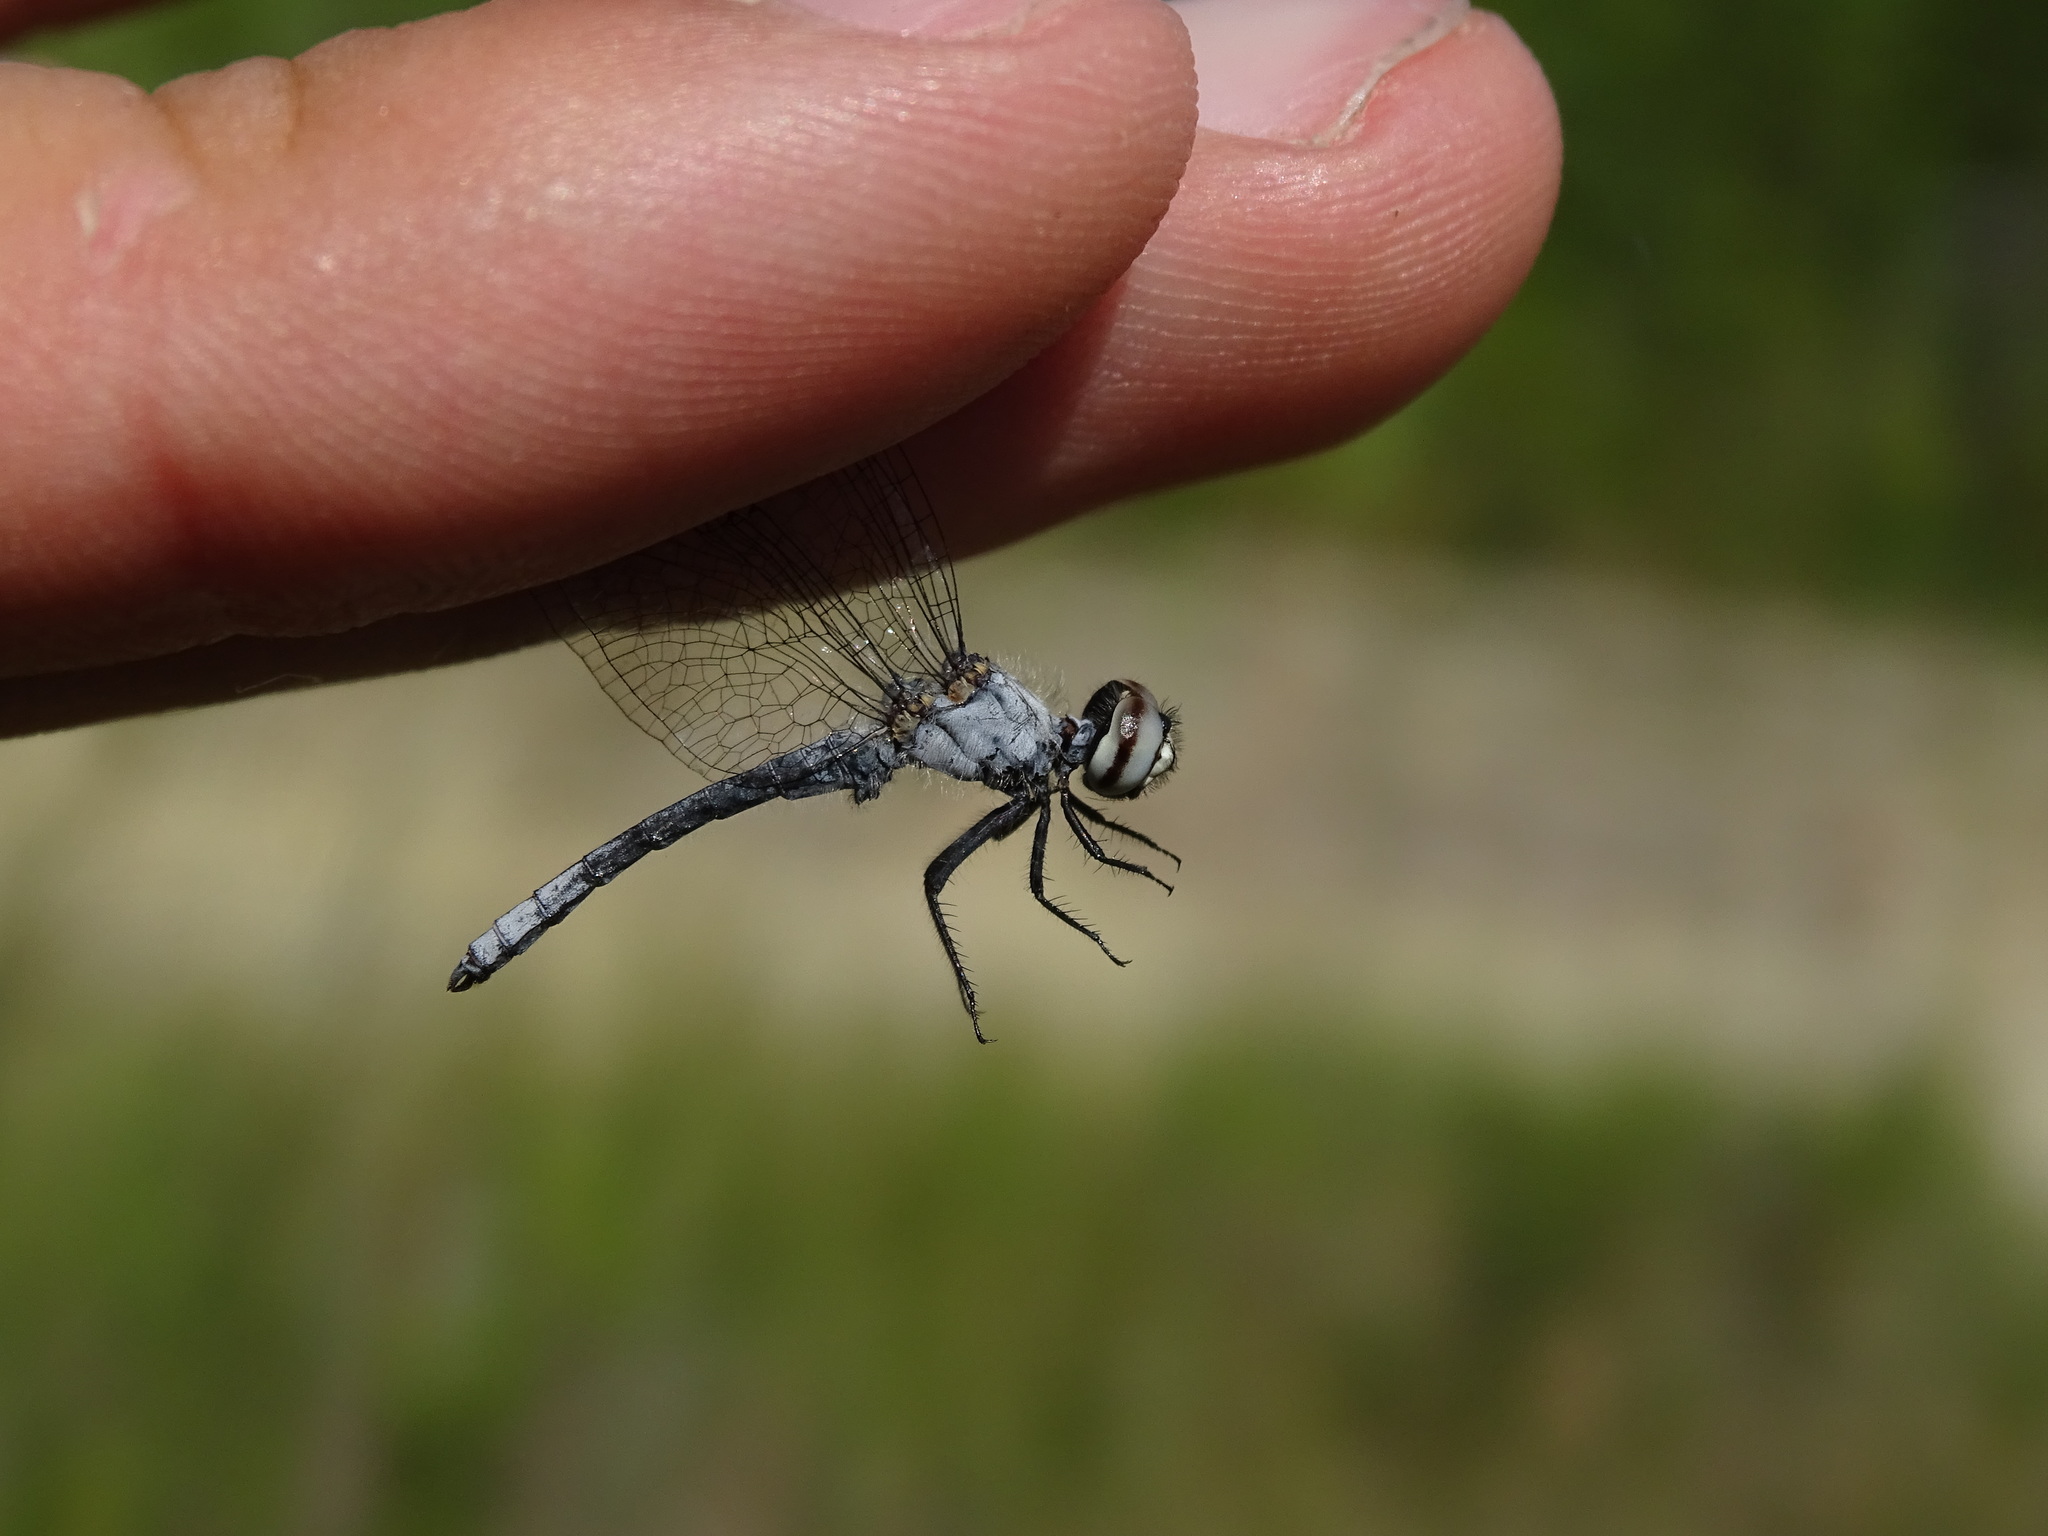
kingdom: Animalia
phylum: Arthropoda
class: Insecta
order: Odonata
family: Libellulidae
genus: Nannothemis
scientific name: Nannothemis bella
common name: Elfin skimmer
